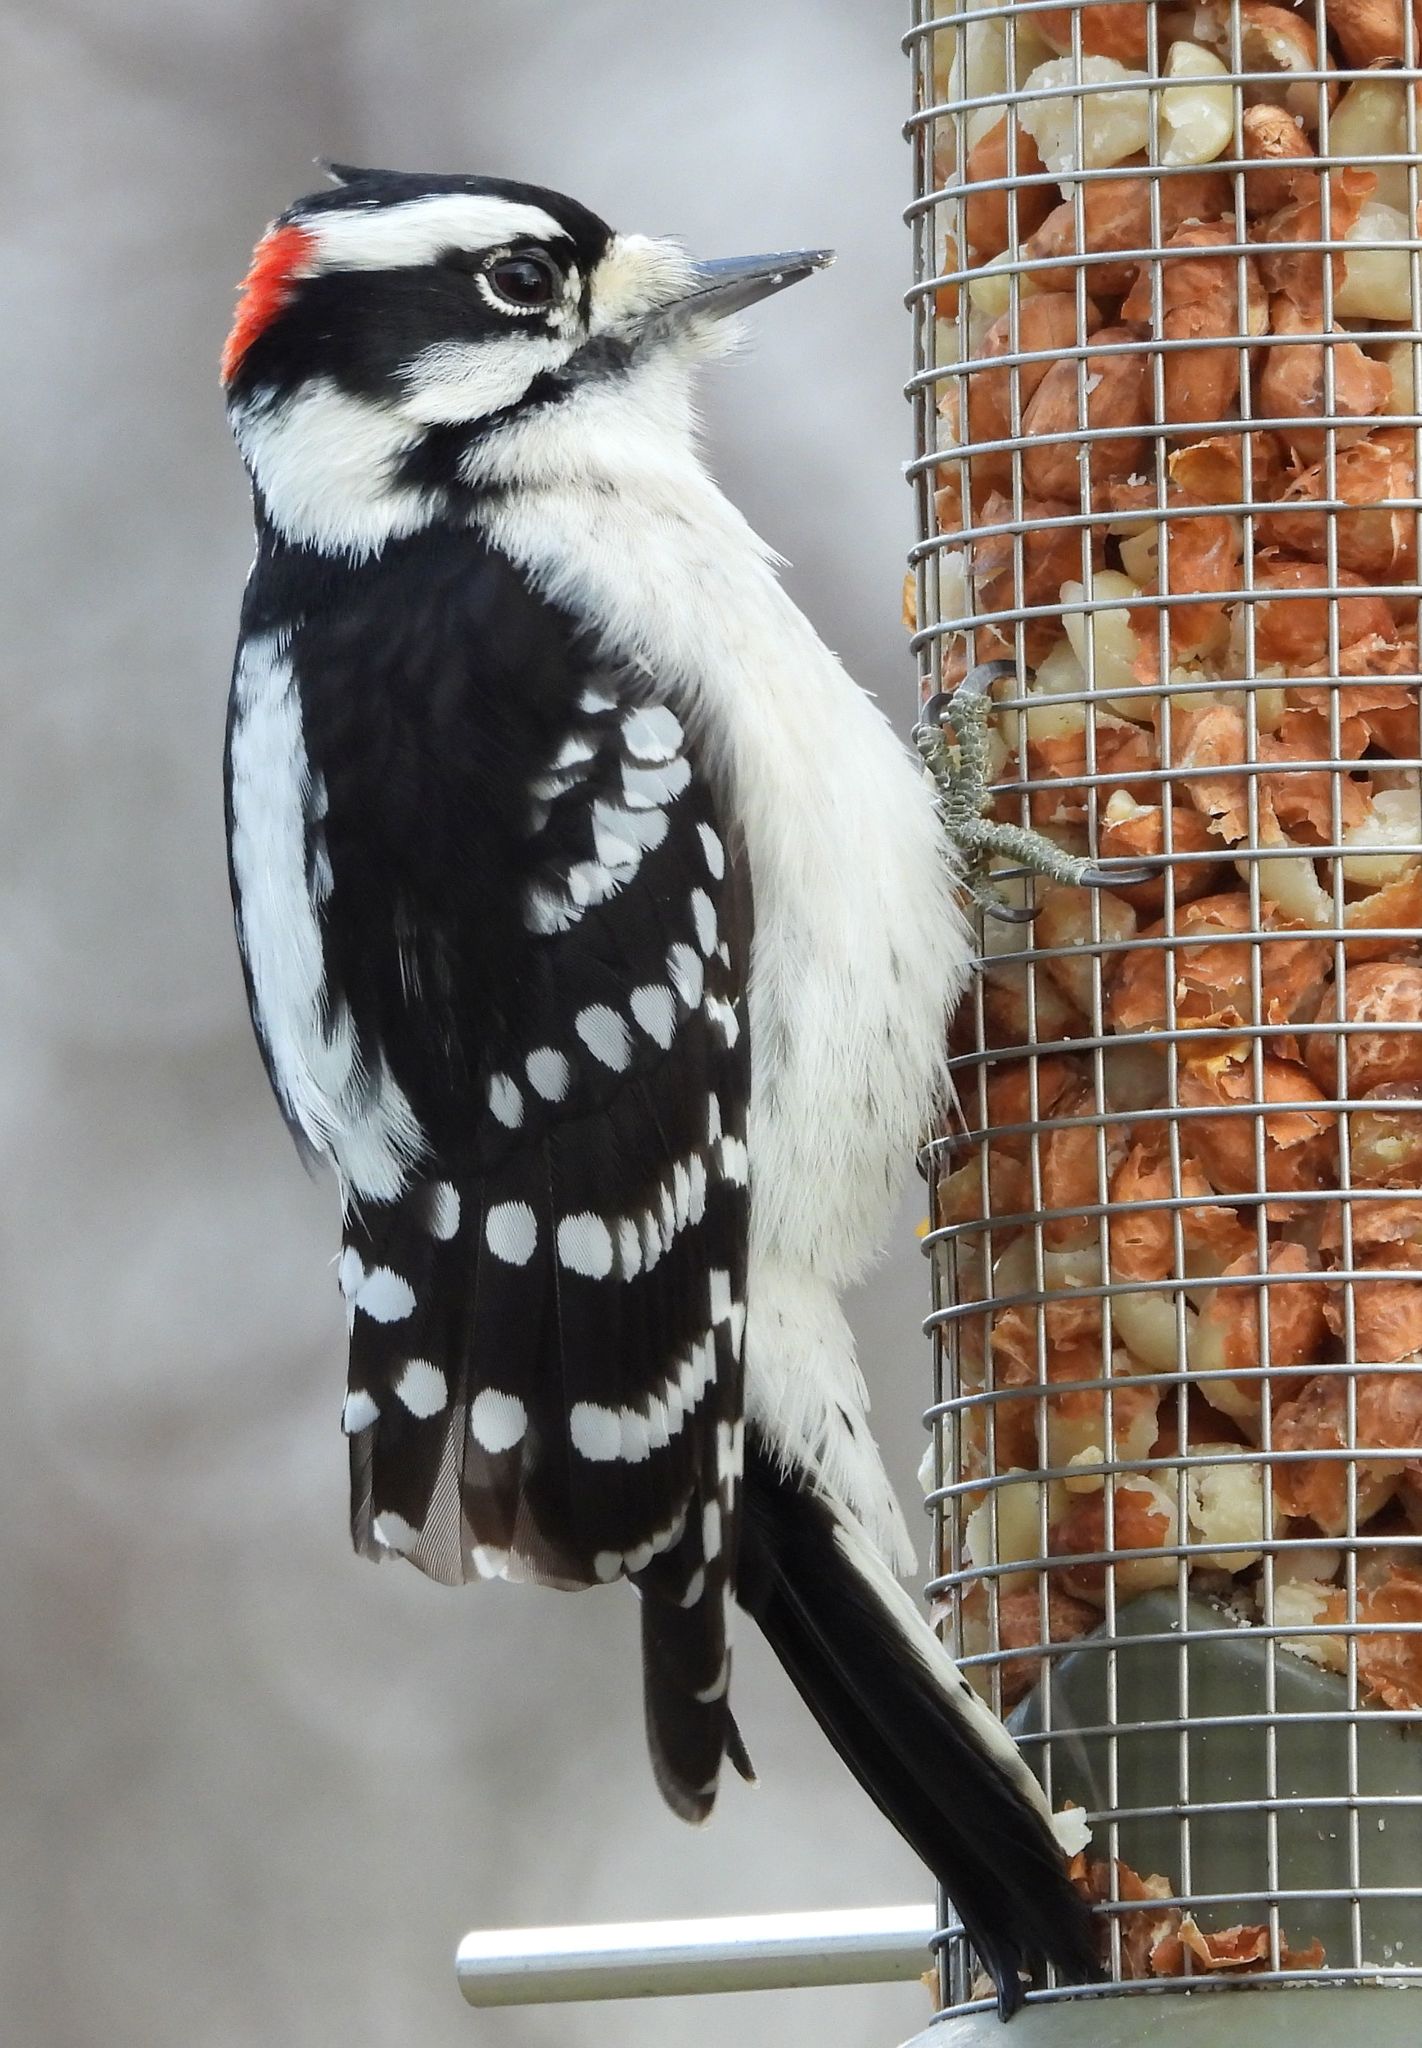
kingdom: Animalia
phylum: Chordata
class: Aves
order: Piciformes
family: Picidae
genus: Dryobates
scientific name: Dryobates pubescens
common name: Downy woodpecker
